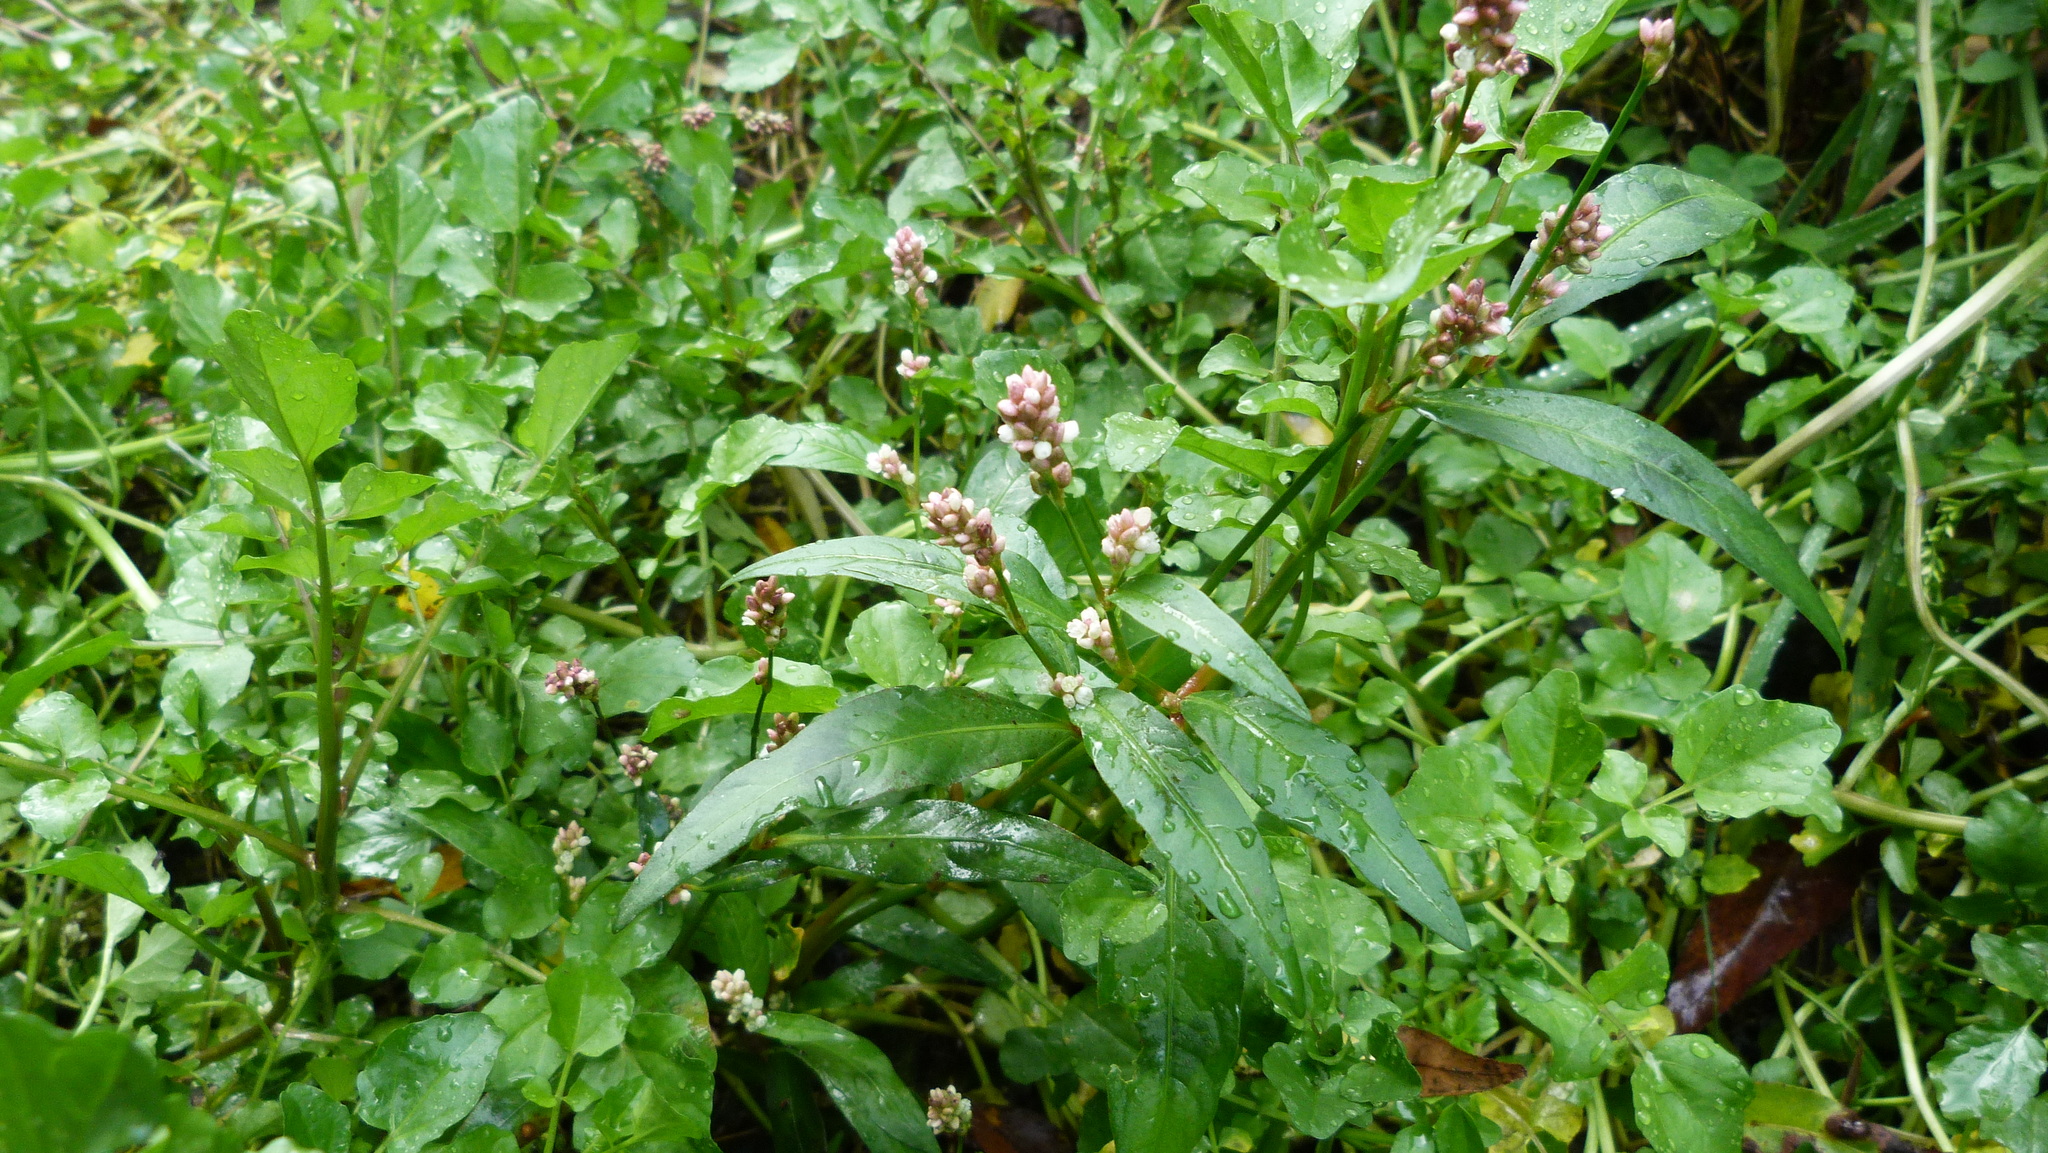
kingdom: Plantae
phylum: Tracheophyta
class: Magnoliopsida
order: Caryophyllales
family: Polygonaceae
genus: Persicaria
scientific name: Persicaria maculosa
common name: Redshank
